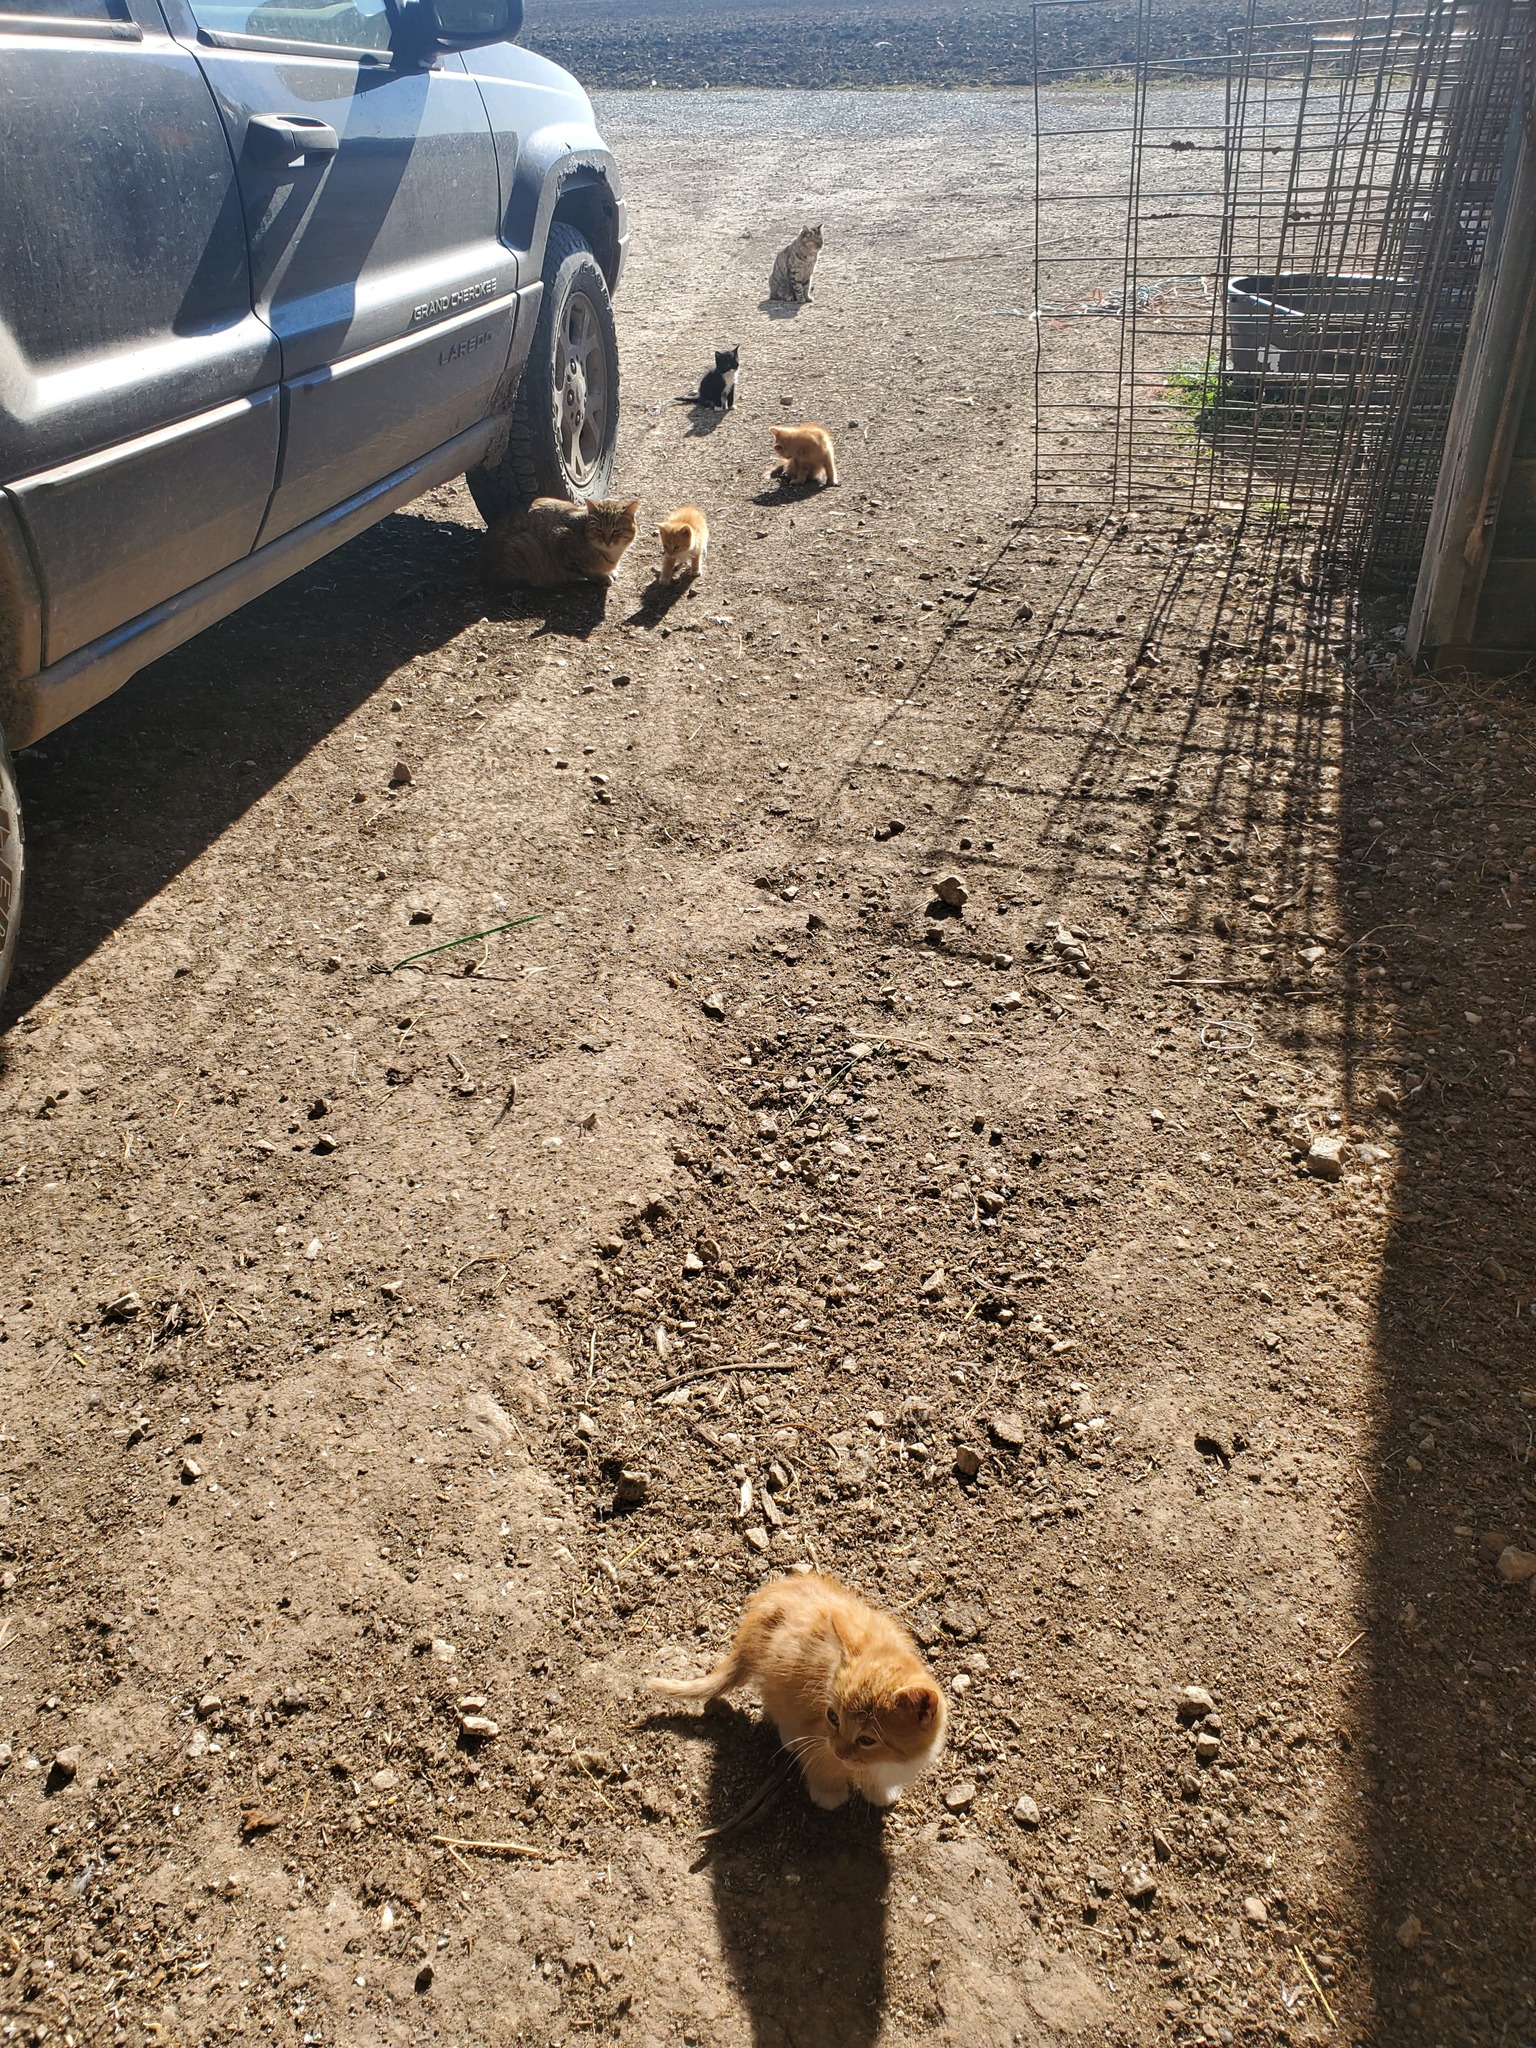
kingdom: Animalia
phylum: Chordata
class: Mammalia
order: Carnivora
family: Felidae
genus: Felis
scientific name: Felis catus
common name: Domestic cat
